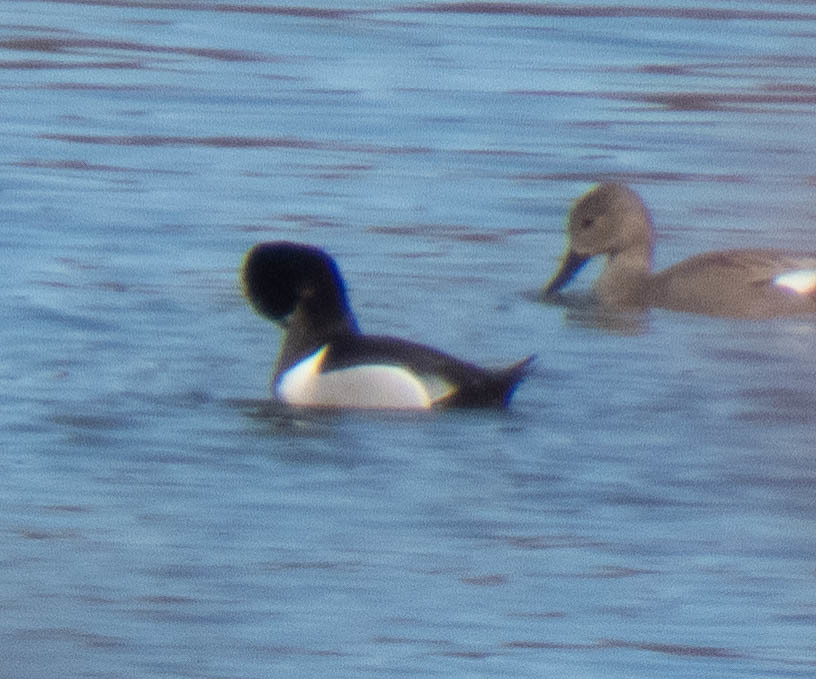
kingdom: Animalia
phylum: Chordata
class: Aves
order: Anseriformes
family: Anatidae
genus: Aythya
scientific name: Aythya collaris
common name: Ring-necked duck
